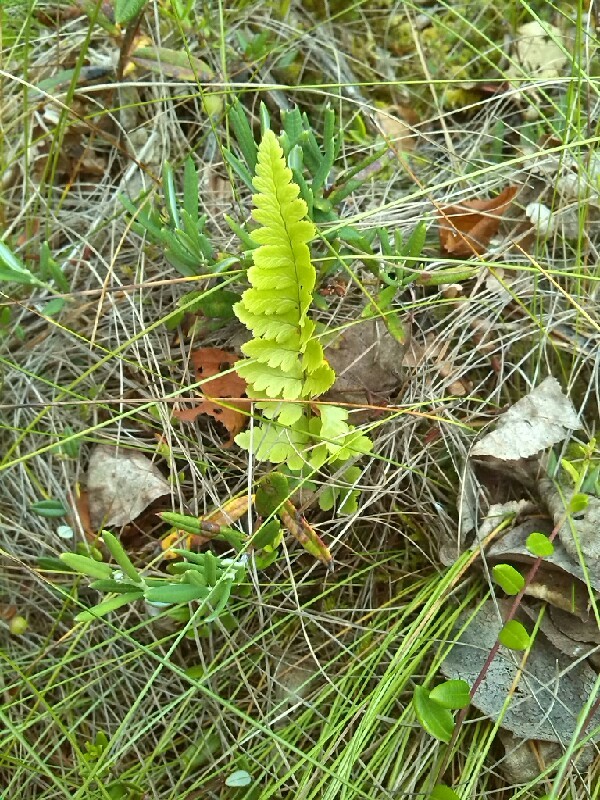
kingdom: Plantae
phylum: Tracheophyta
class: Polypodiopsida
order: Polypodiales
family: Dryopteridaceae
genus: Dryopteris
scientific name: Dryopteris cristata
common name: Crested wood fern
